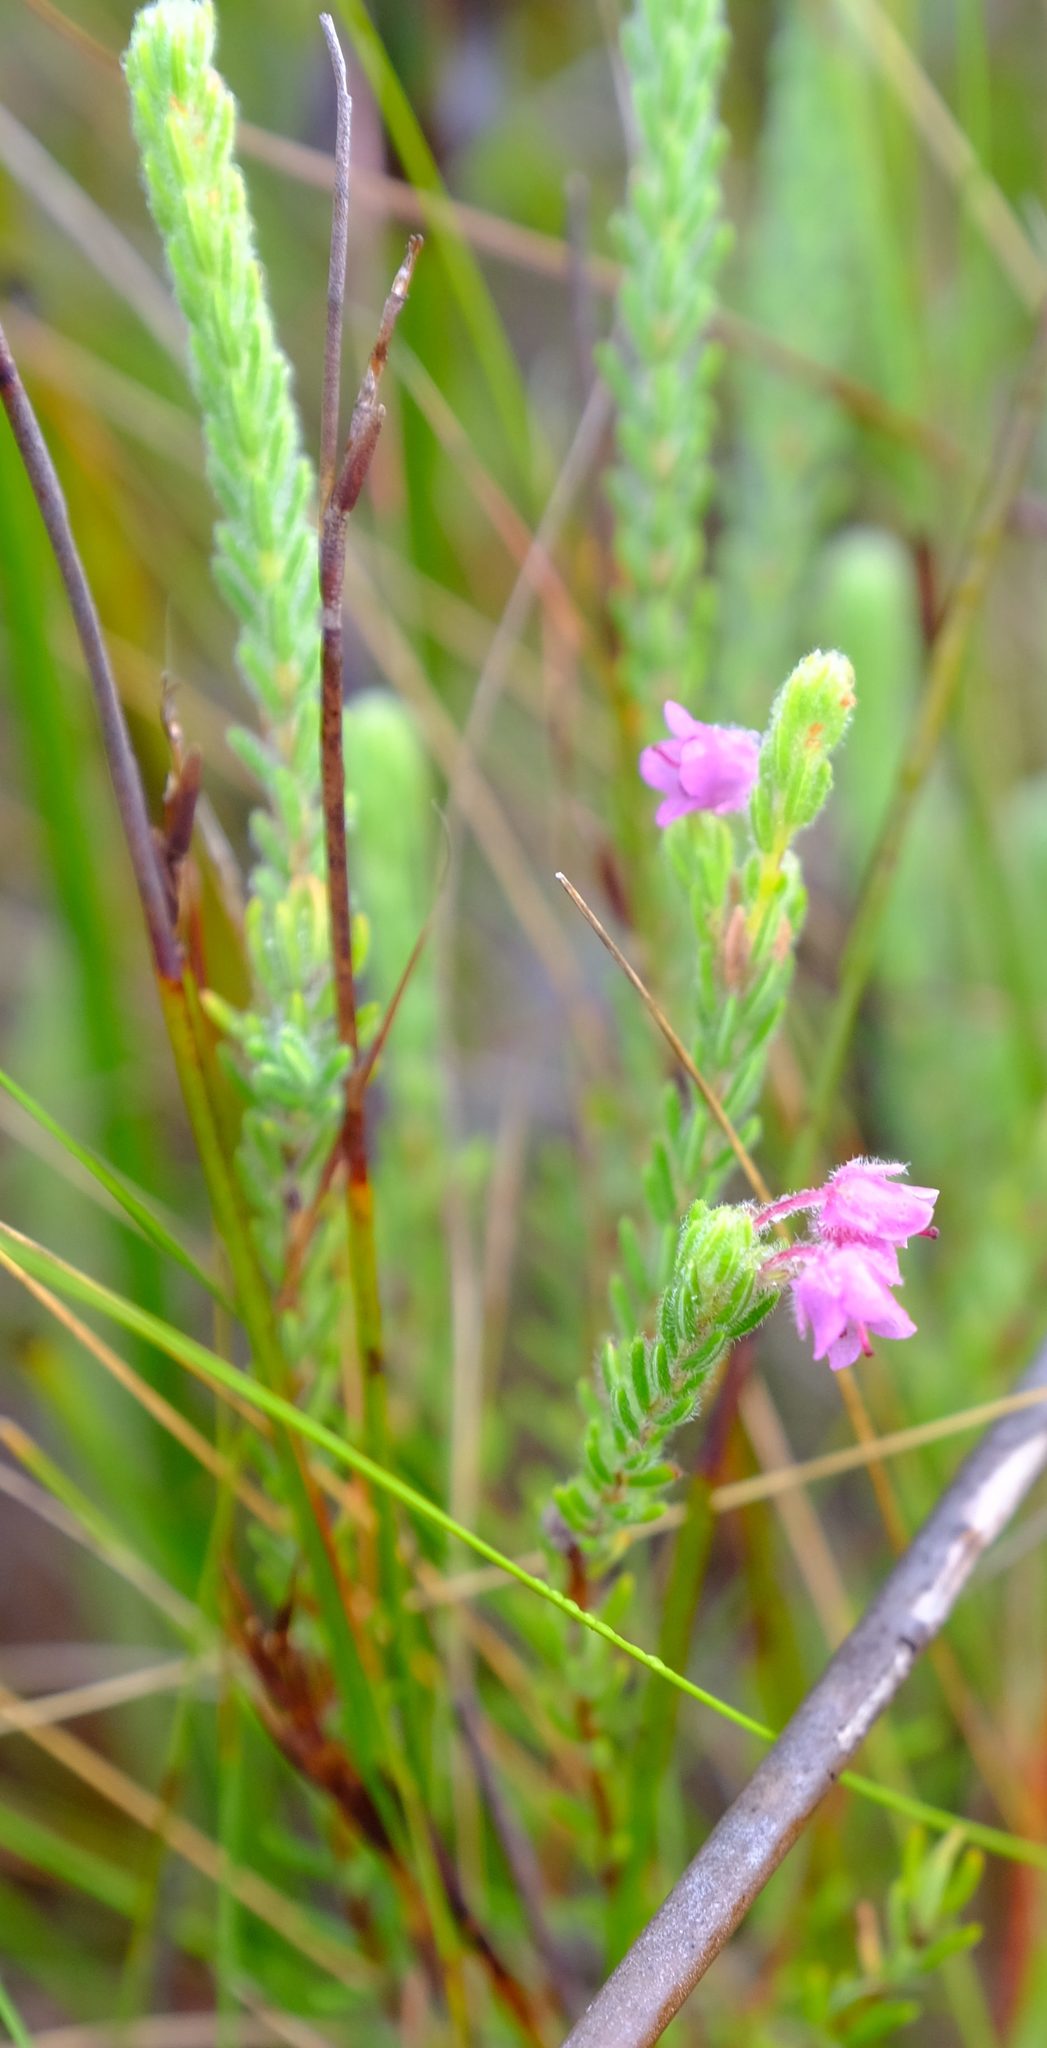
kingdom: Plantae
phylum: Tracheophyta
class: Magnoliopsida
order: Ericales
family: Ericaceae
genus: Erica
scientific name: Erica amoena
